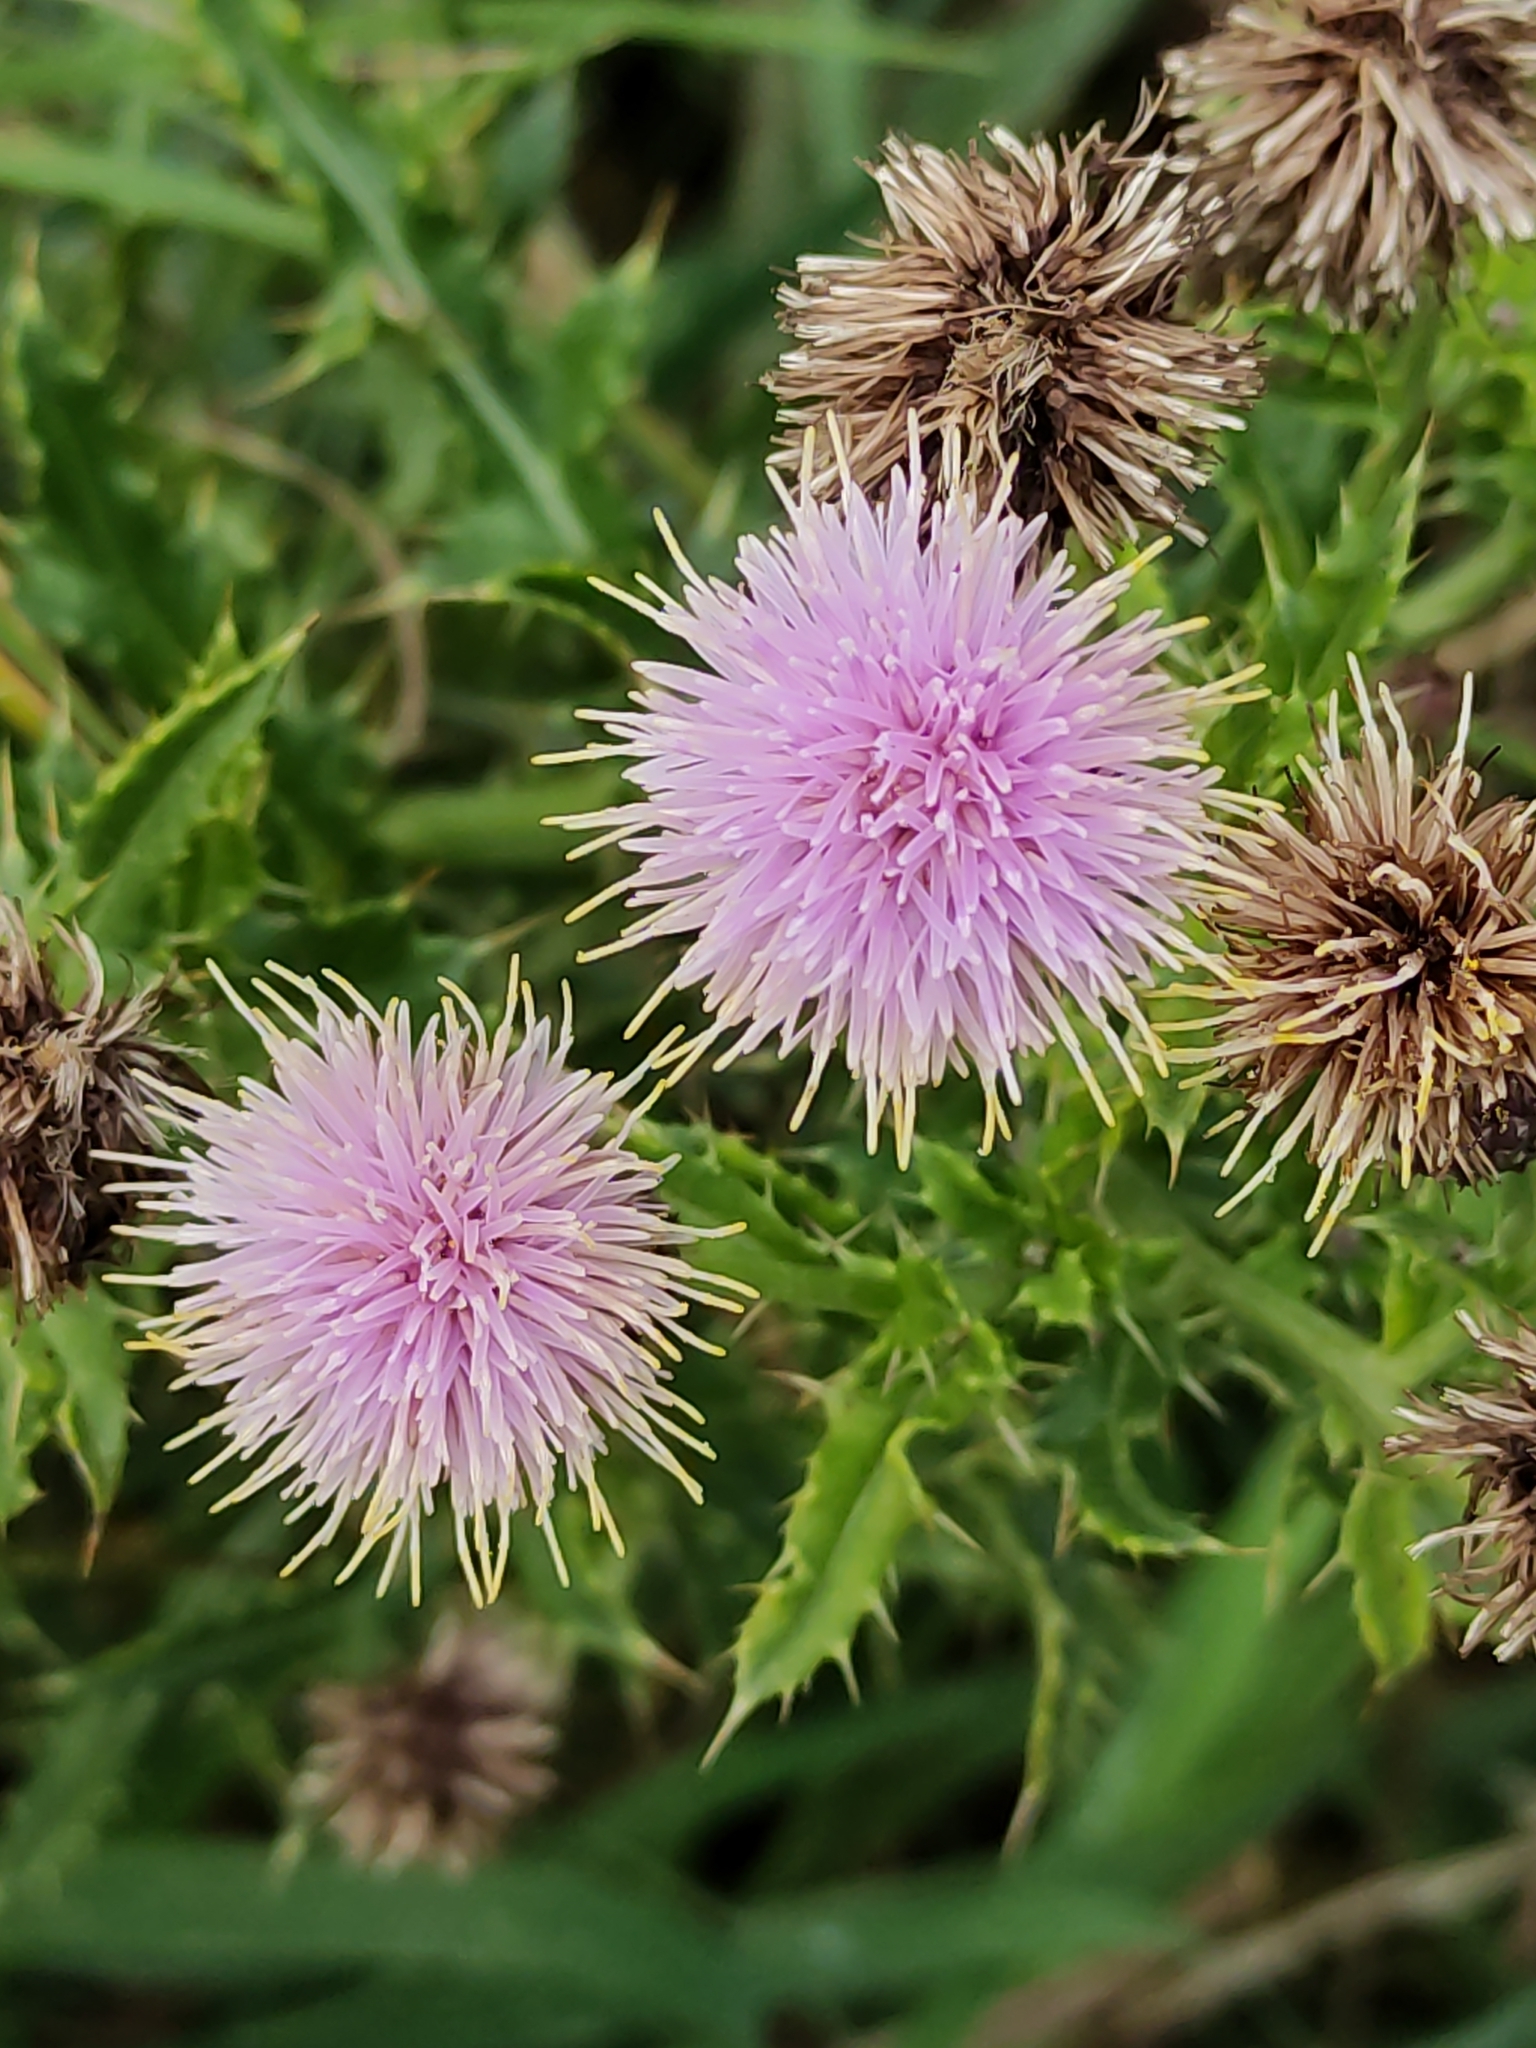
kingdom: Plantae
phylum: Tracheophyta
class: Magnoliopsida
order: Asterales
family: Asteraceae
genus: Cirsium
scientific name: Cirsium arvense
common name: Creeping thistle
